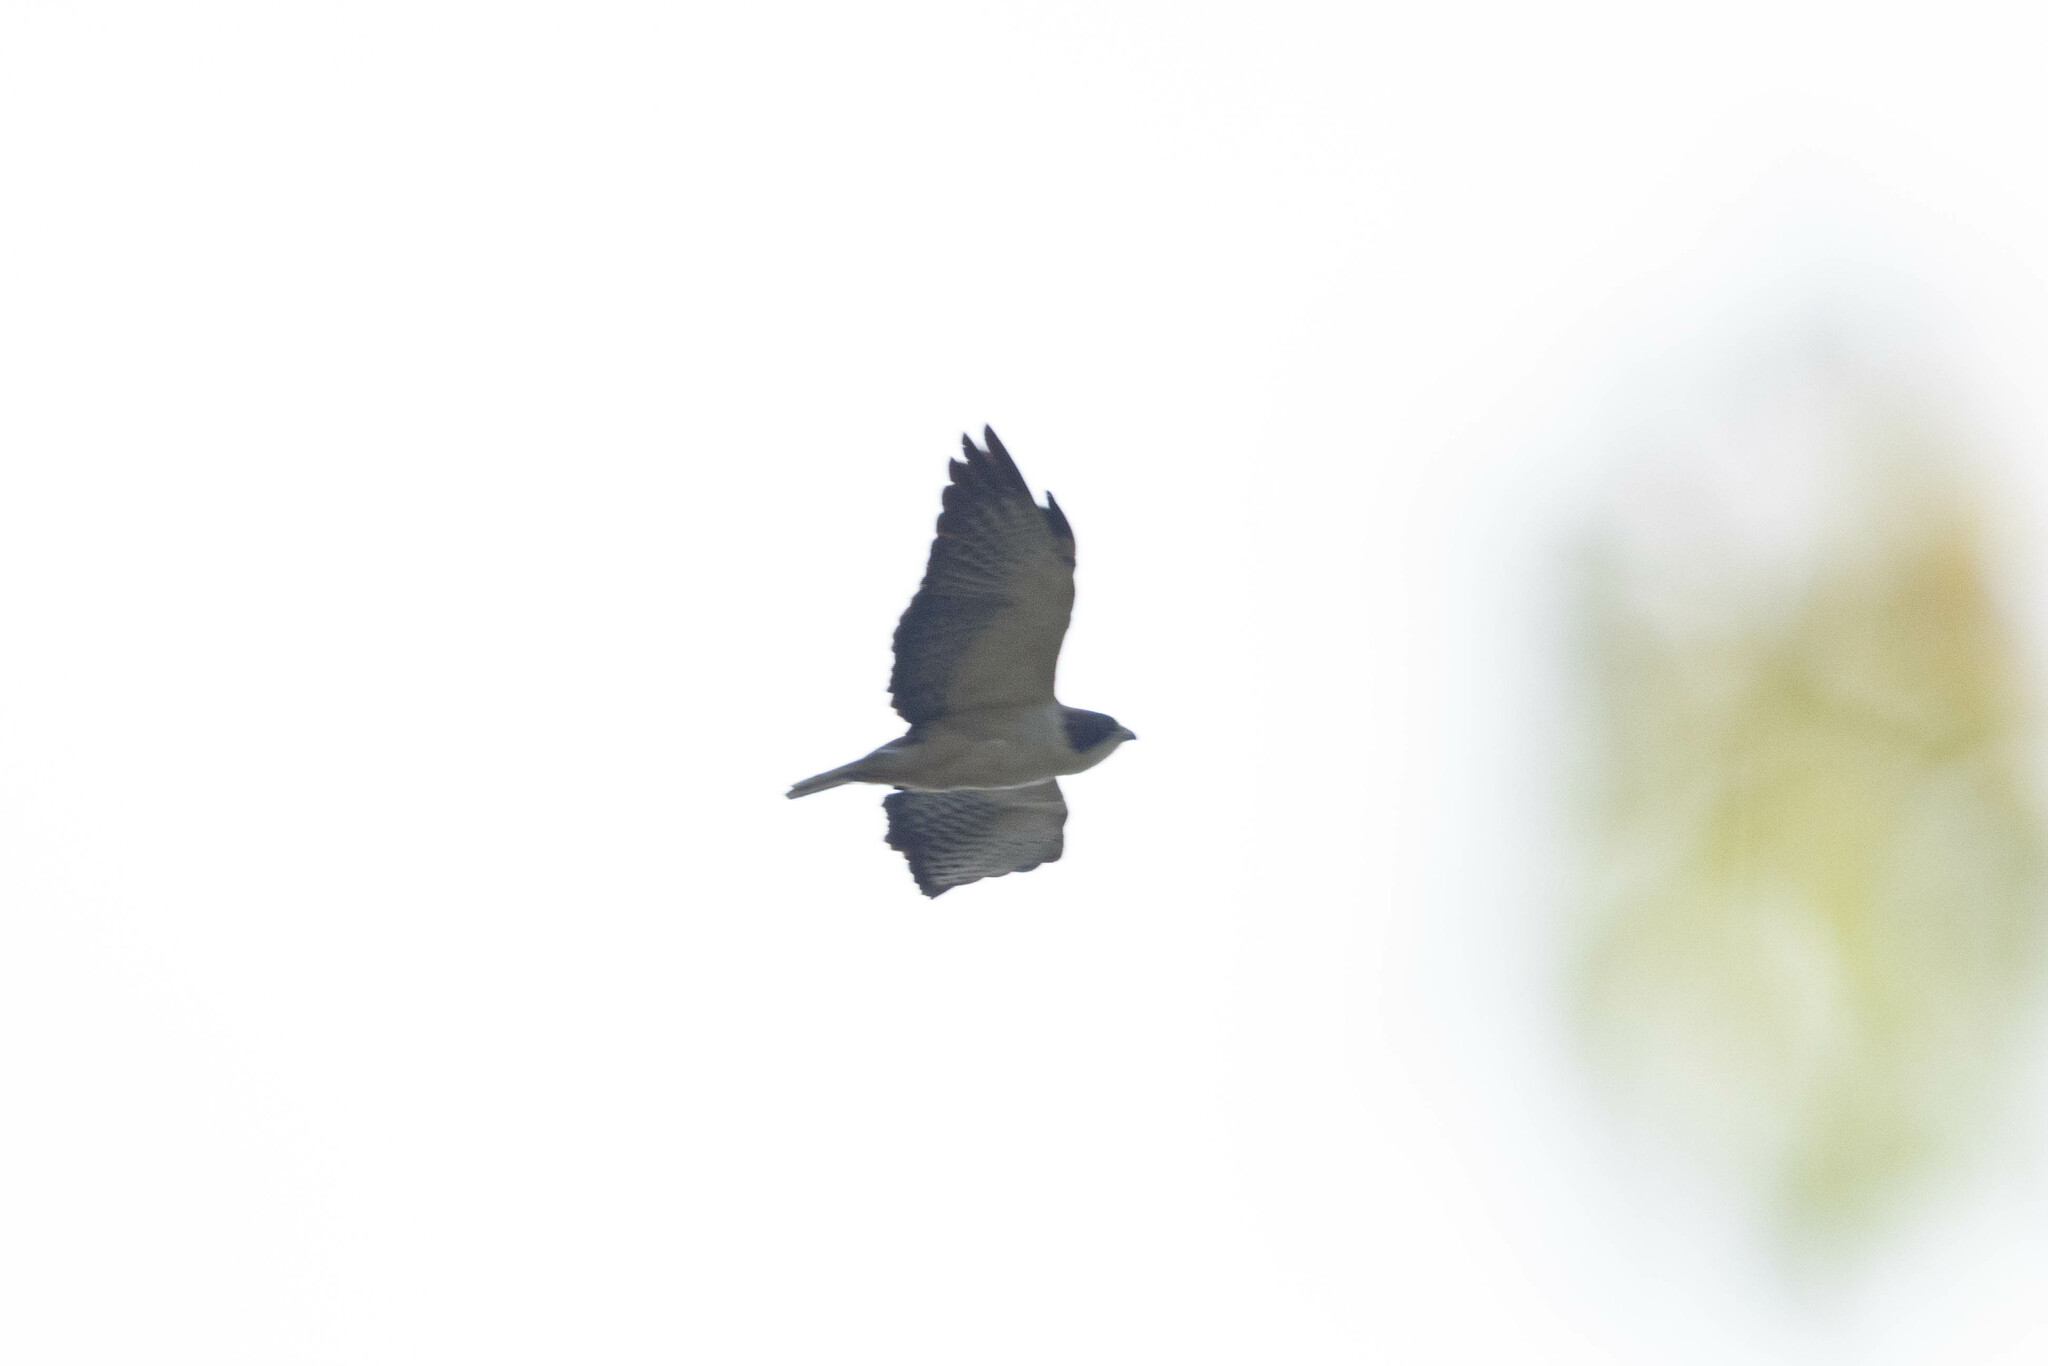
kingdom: Animalia
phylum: Chordata
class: Aves
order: Accipitriformes
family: Accipitridae
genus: Buteo
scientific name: Buteo brachyurus
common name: Short-tailed hawk
